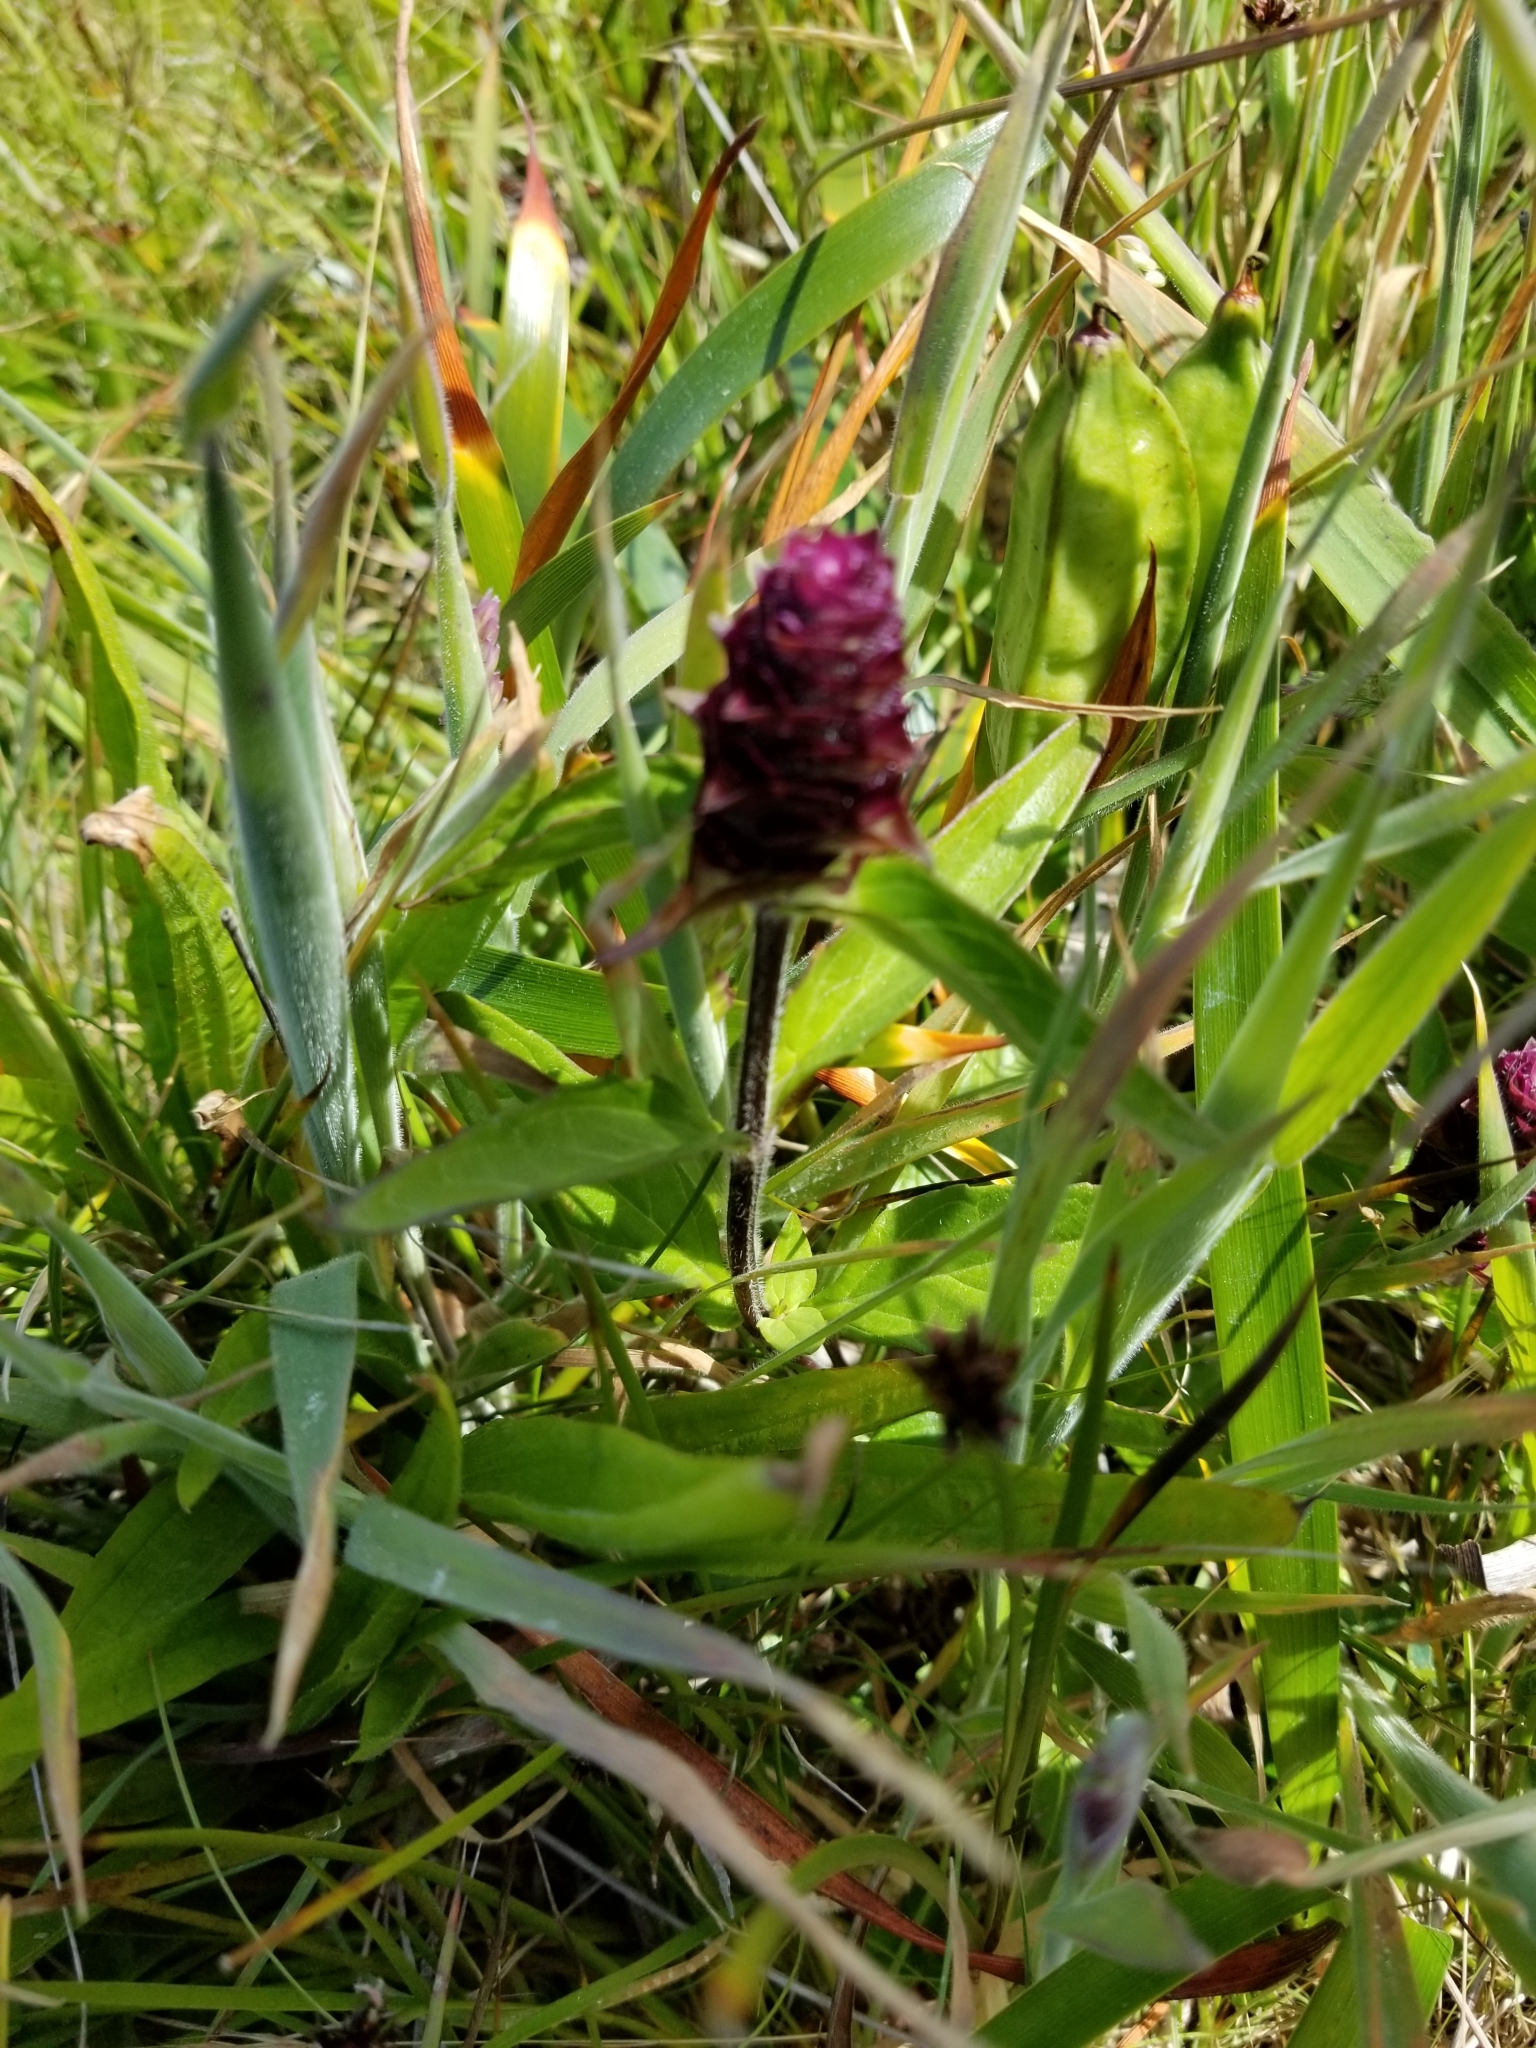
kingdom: Plantae
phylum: Tracheophyta
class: Magnoliopsida
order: Lamiales
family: Lamiaceae
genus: Prunella
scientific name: Prunella vulgaris
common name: Heal-all
